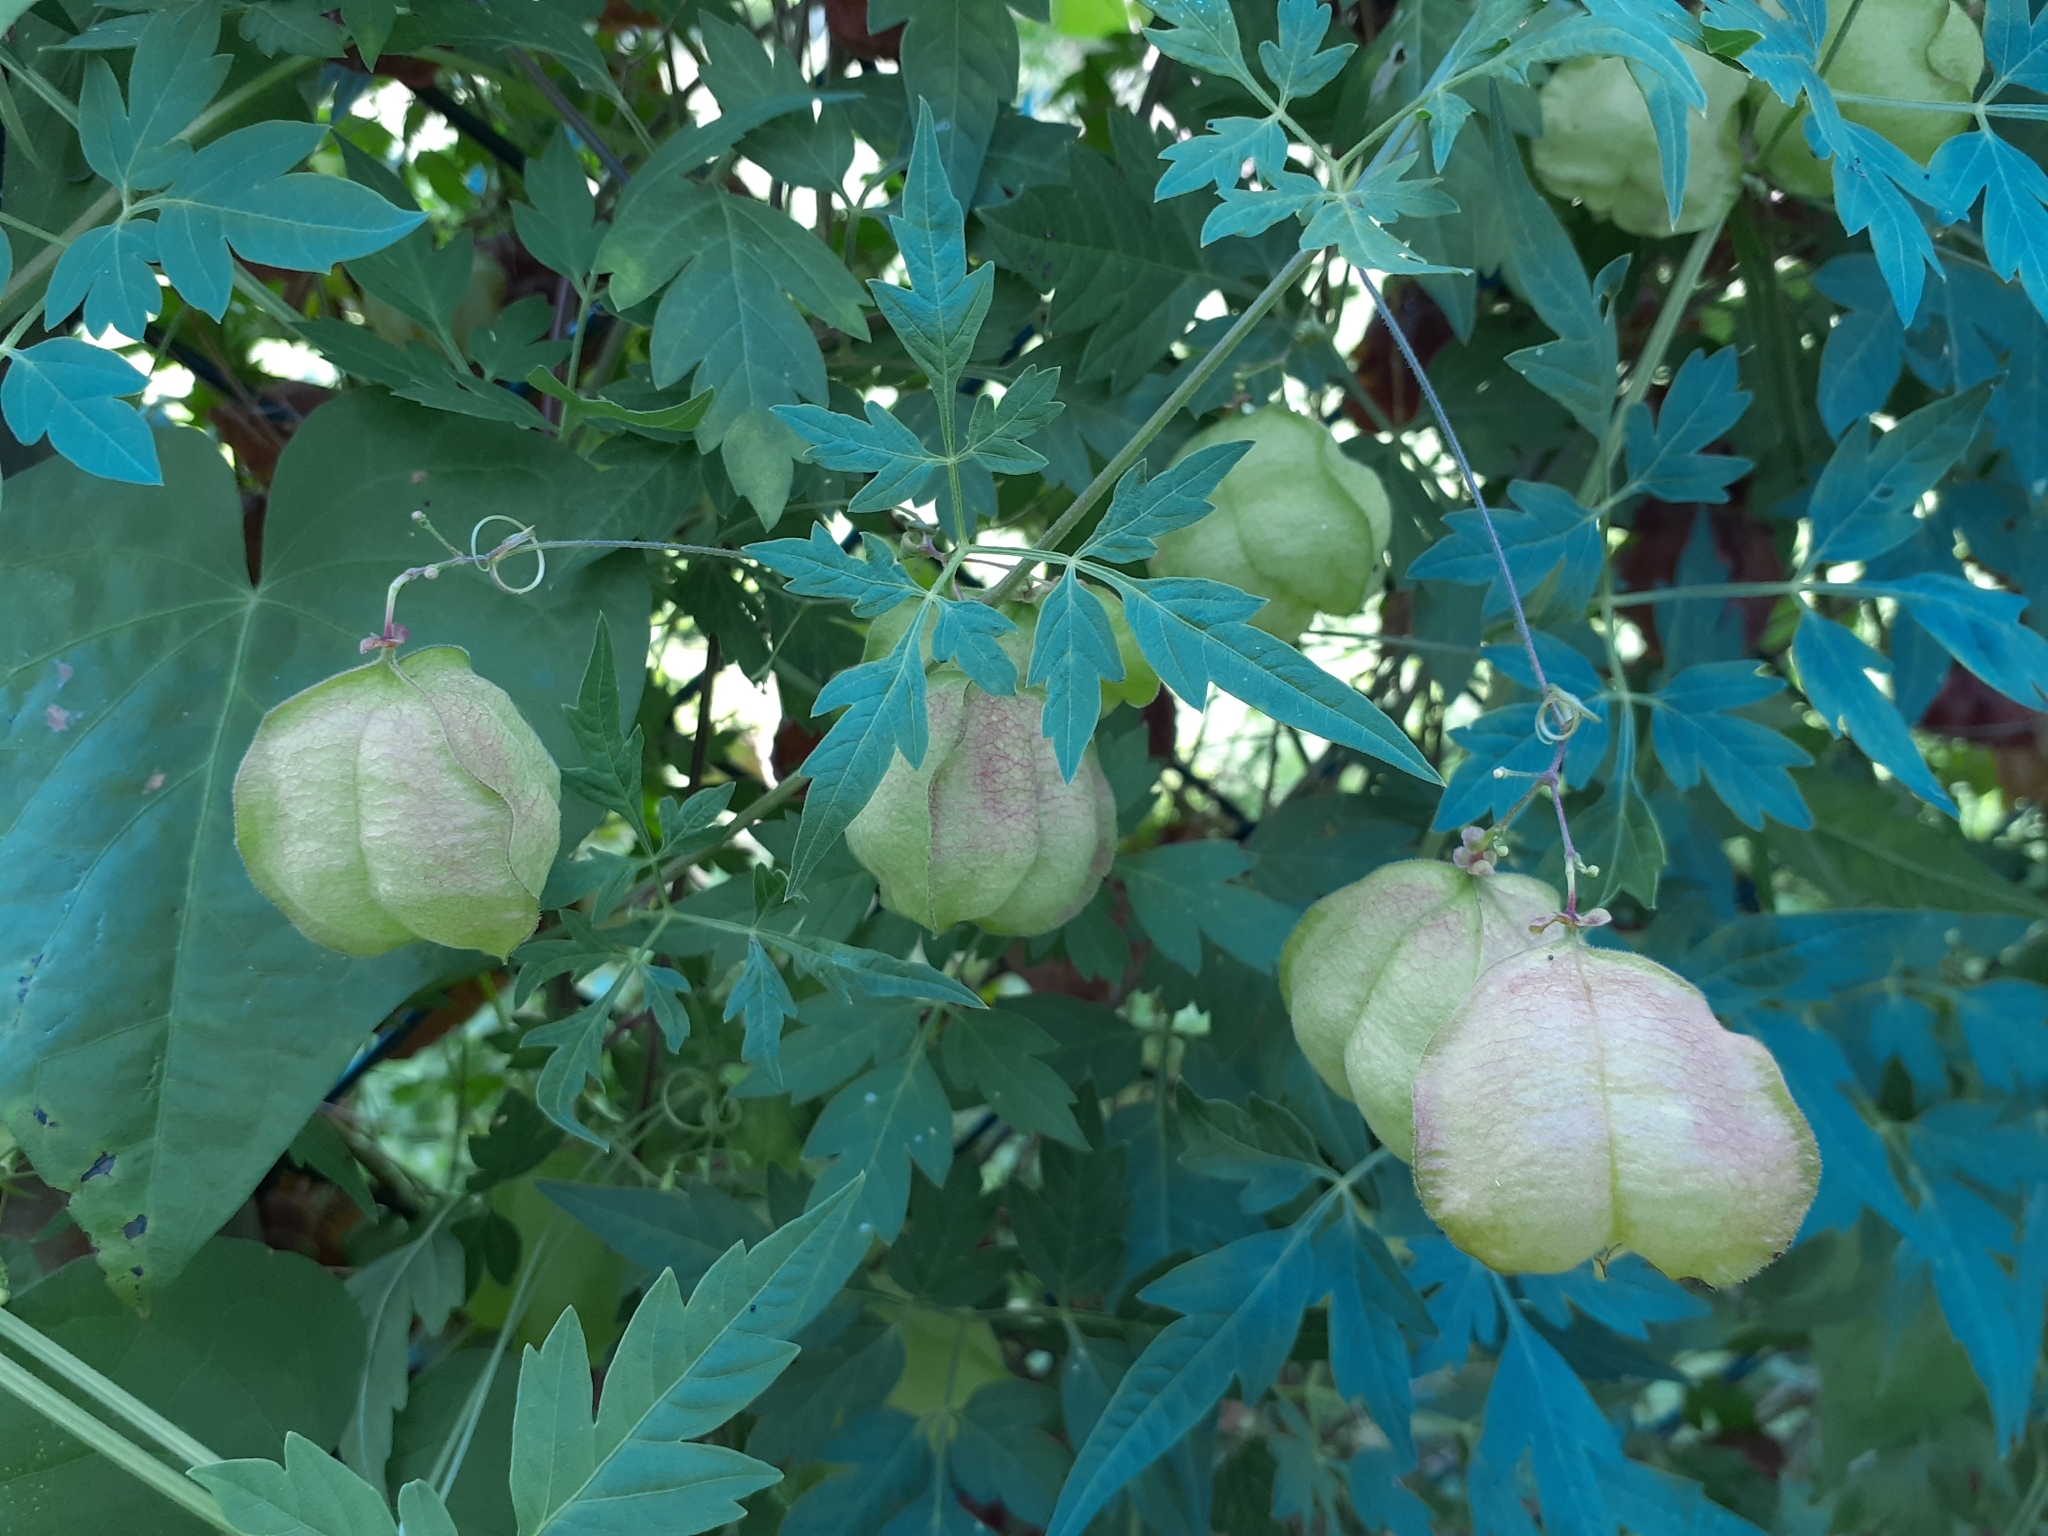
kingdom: Plantae
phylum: Tracheophyta
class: Magnoliopsida
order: Sapindales
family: Sapindaceae
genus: Cardiospermum
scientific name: Cardiospermum halicacabum
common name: Balloon vine
